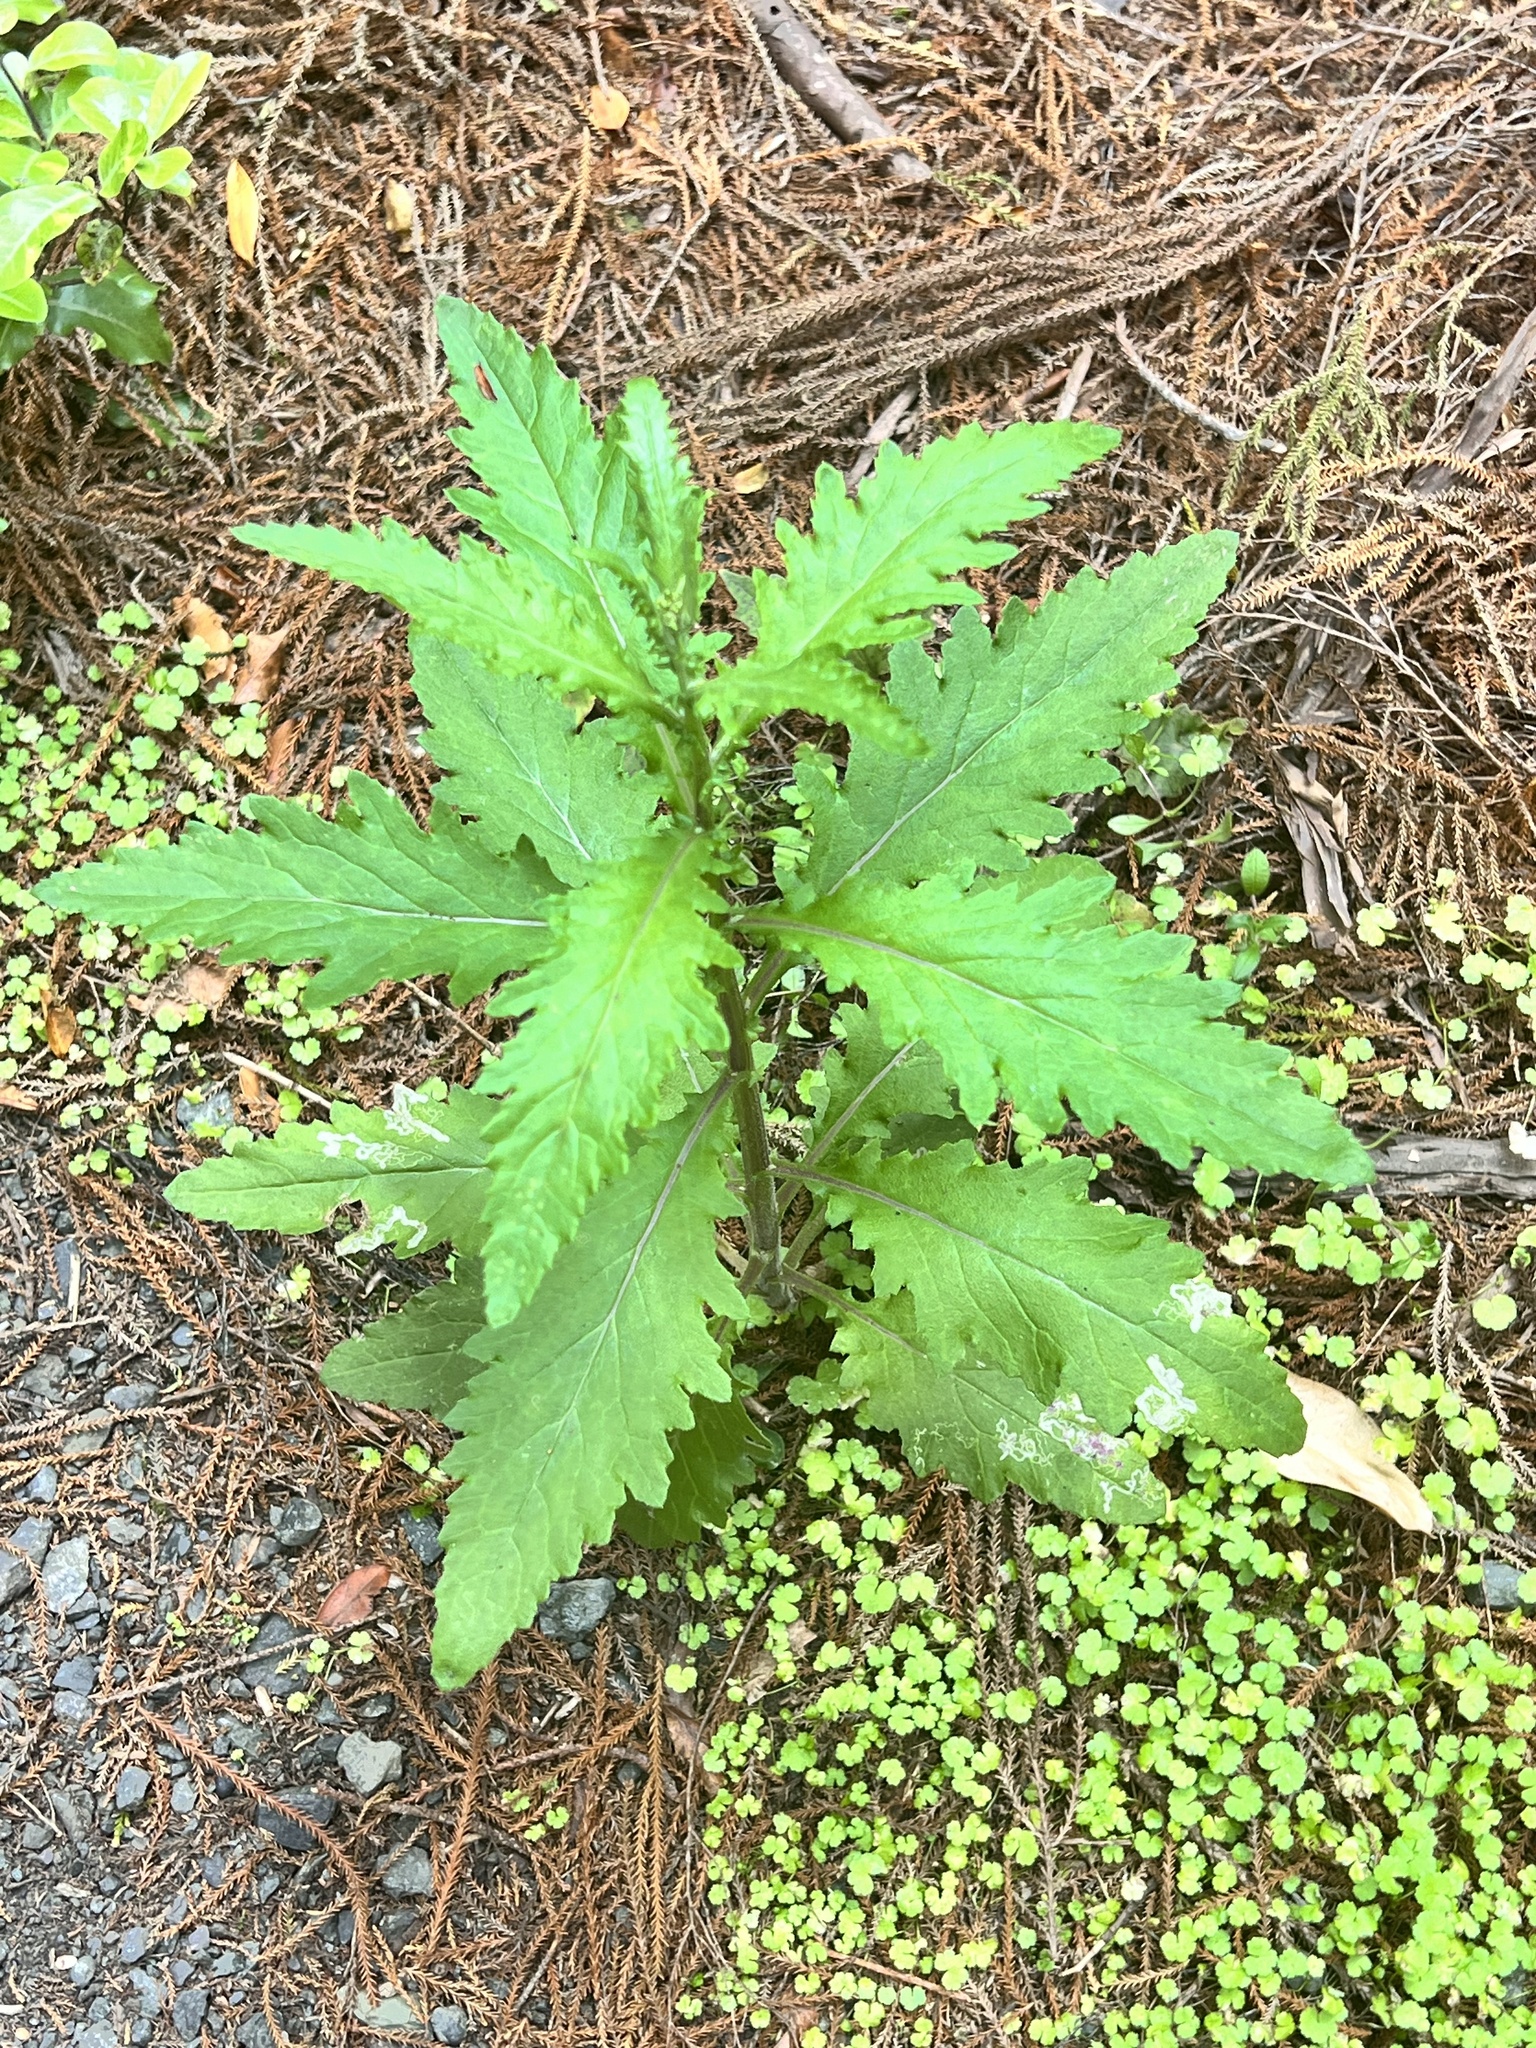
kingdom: Plantae
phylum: Tracheophyta
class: Magnoliopsida
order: Asterales
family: Asteraceae
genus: Senecio
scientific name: Senecio biserratus
